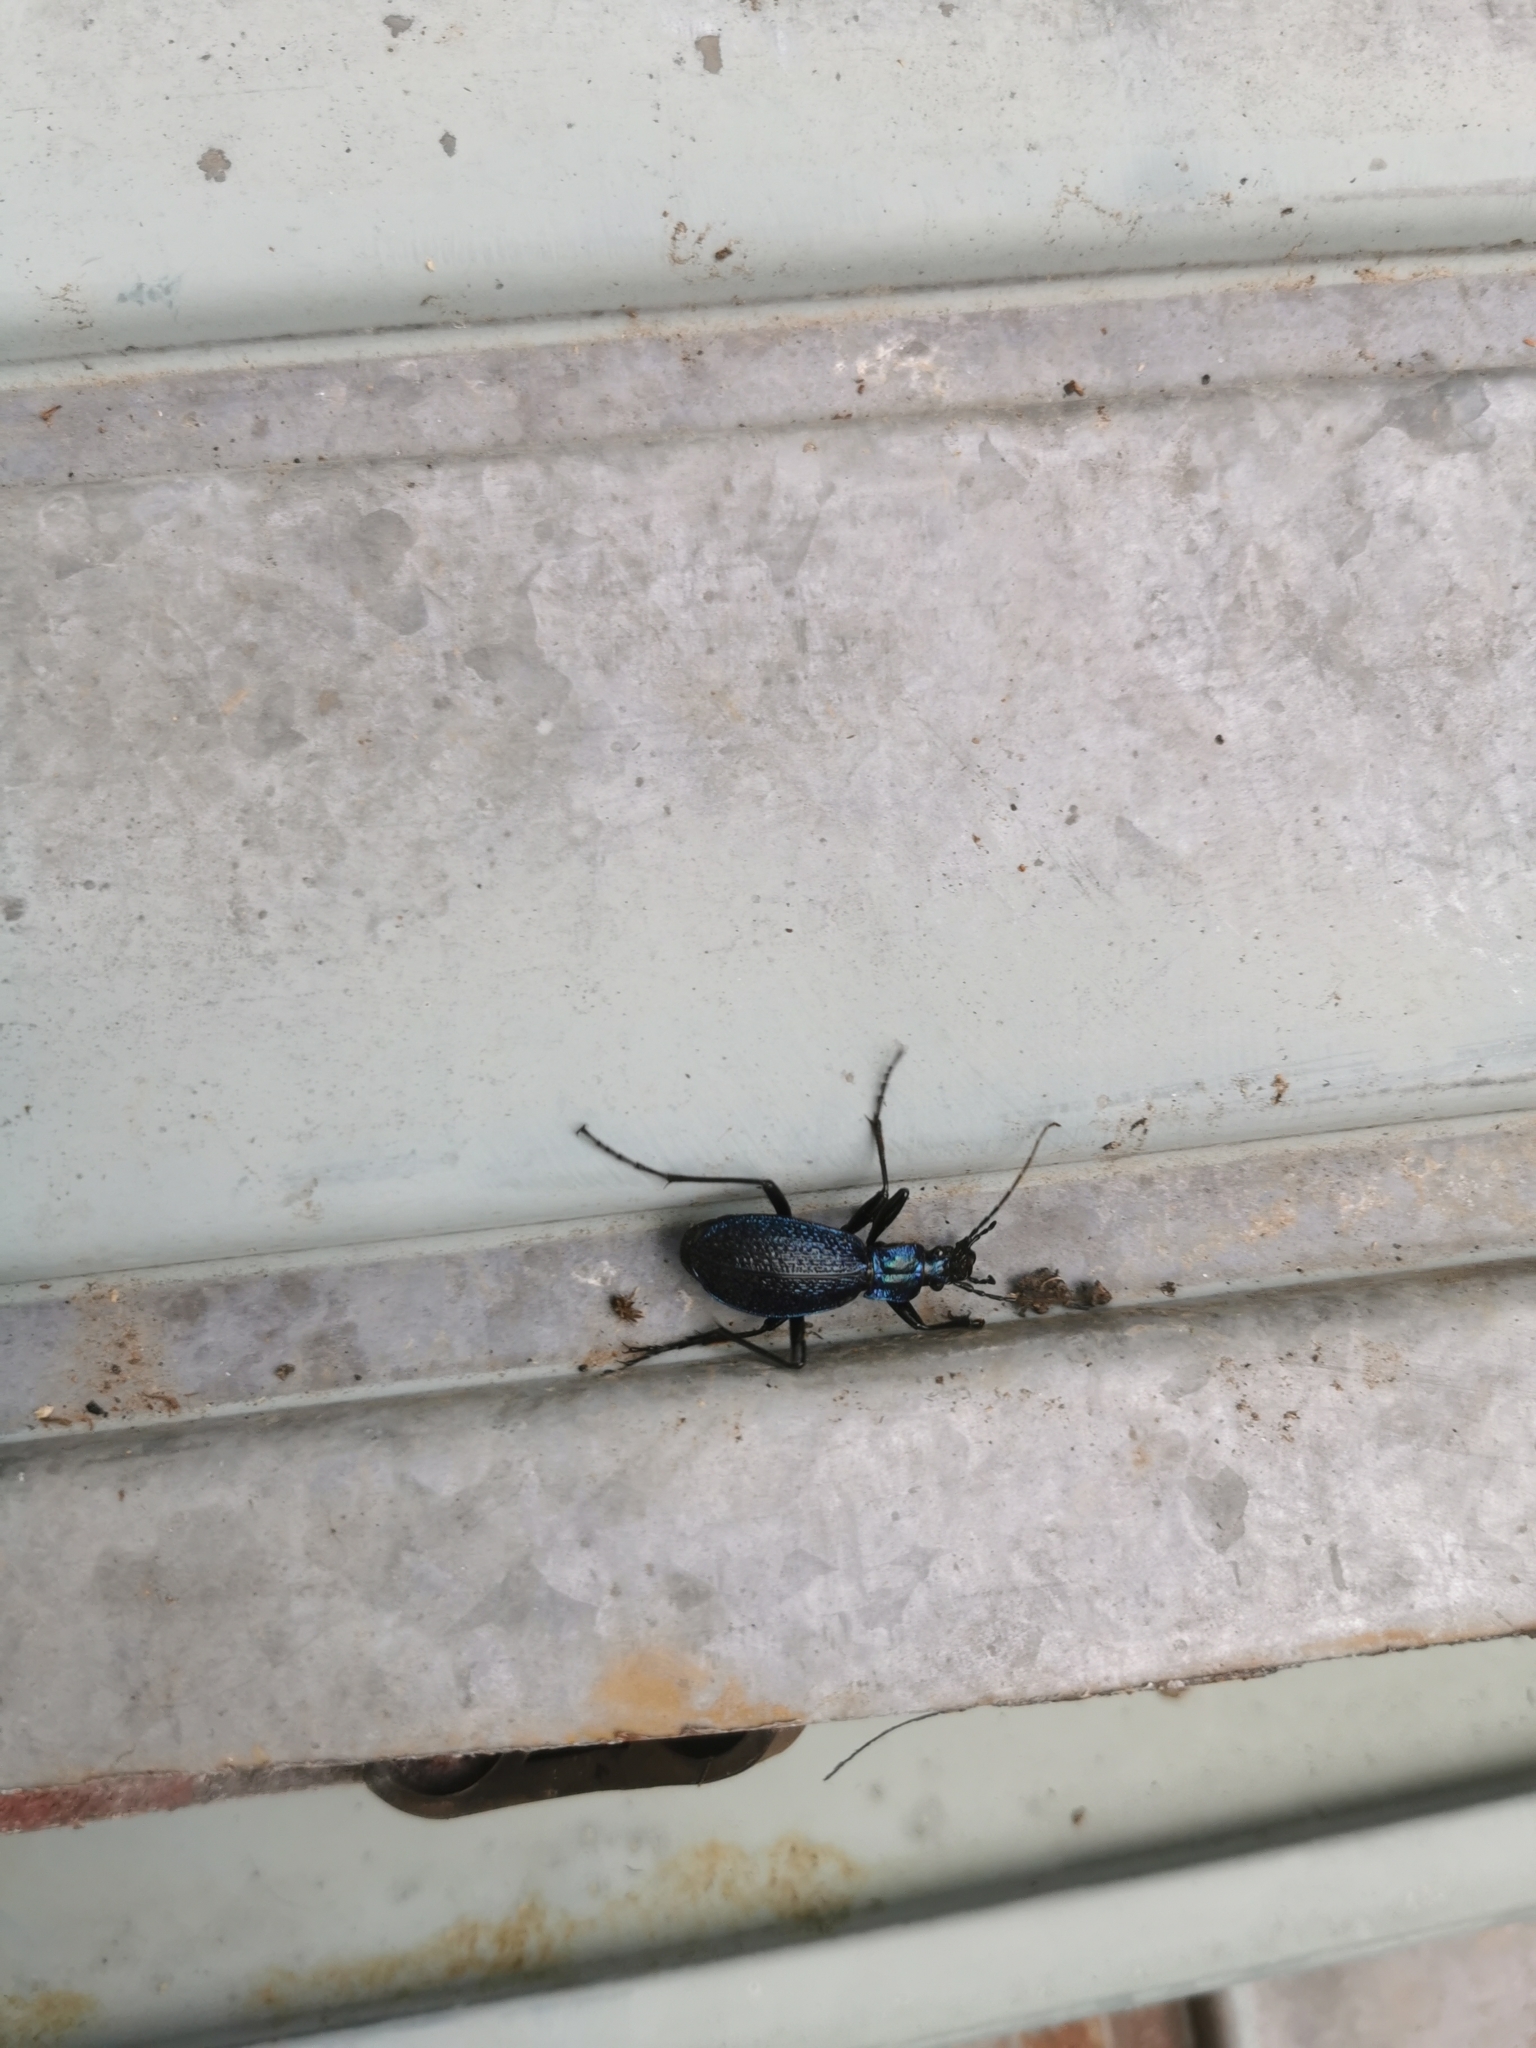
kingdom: Animalia
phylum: Arthropoda
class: Insecta
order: Coleoptera
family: Carabidae
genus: Carabus
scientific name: Carabus intricatus
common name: Blue ground beetle
